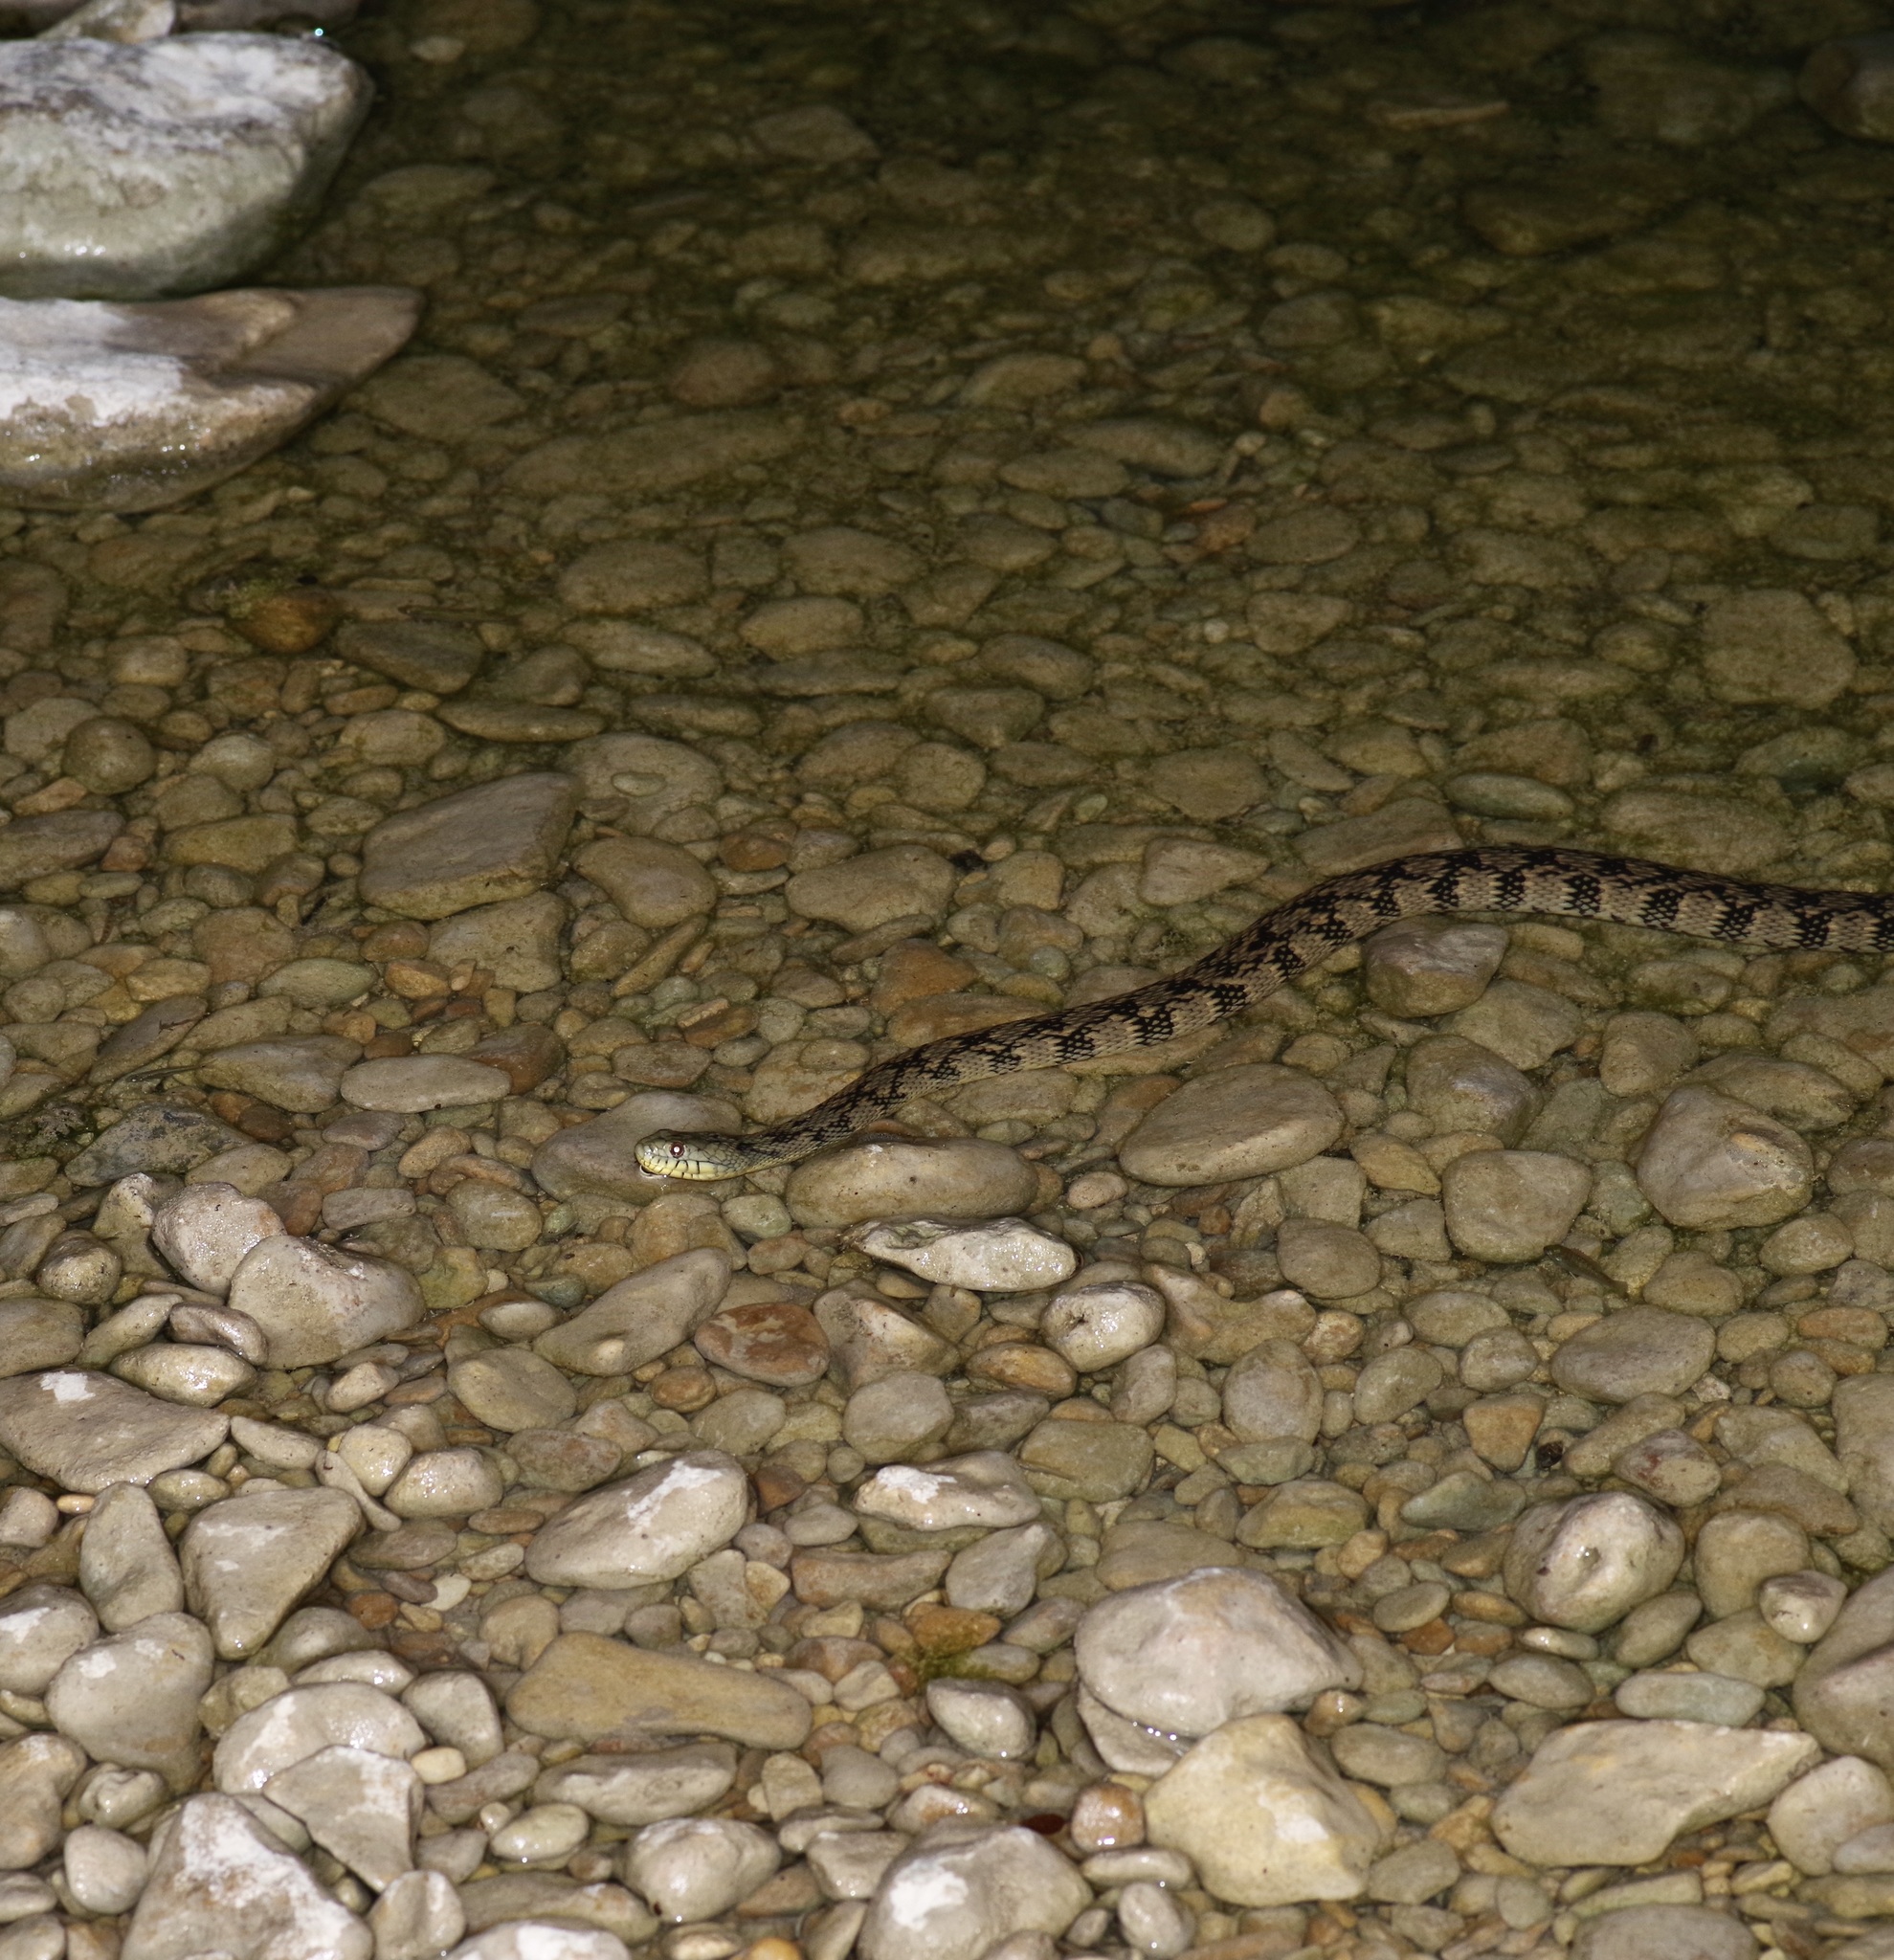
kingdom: Animalia
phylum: Chordata
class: Squamata
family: Colubridae
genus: Nerodia
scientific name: Nerodia rhombifer
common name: Diamondback water snake
